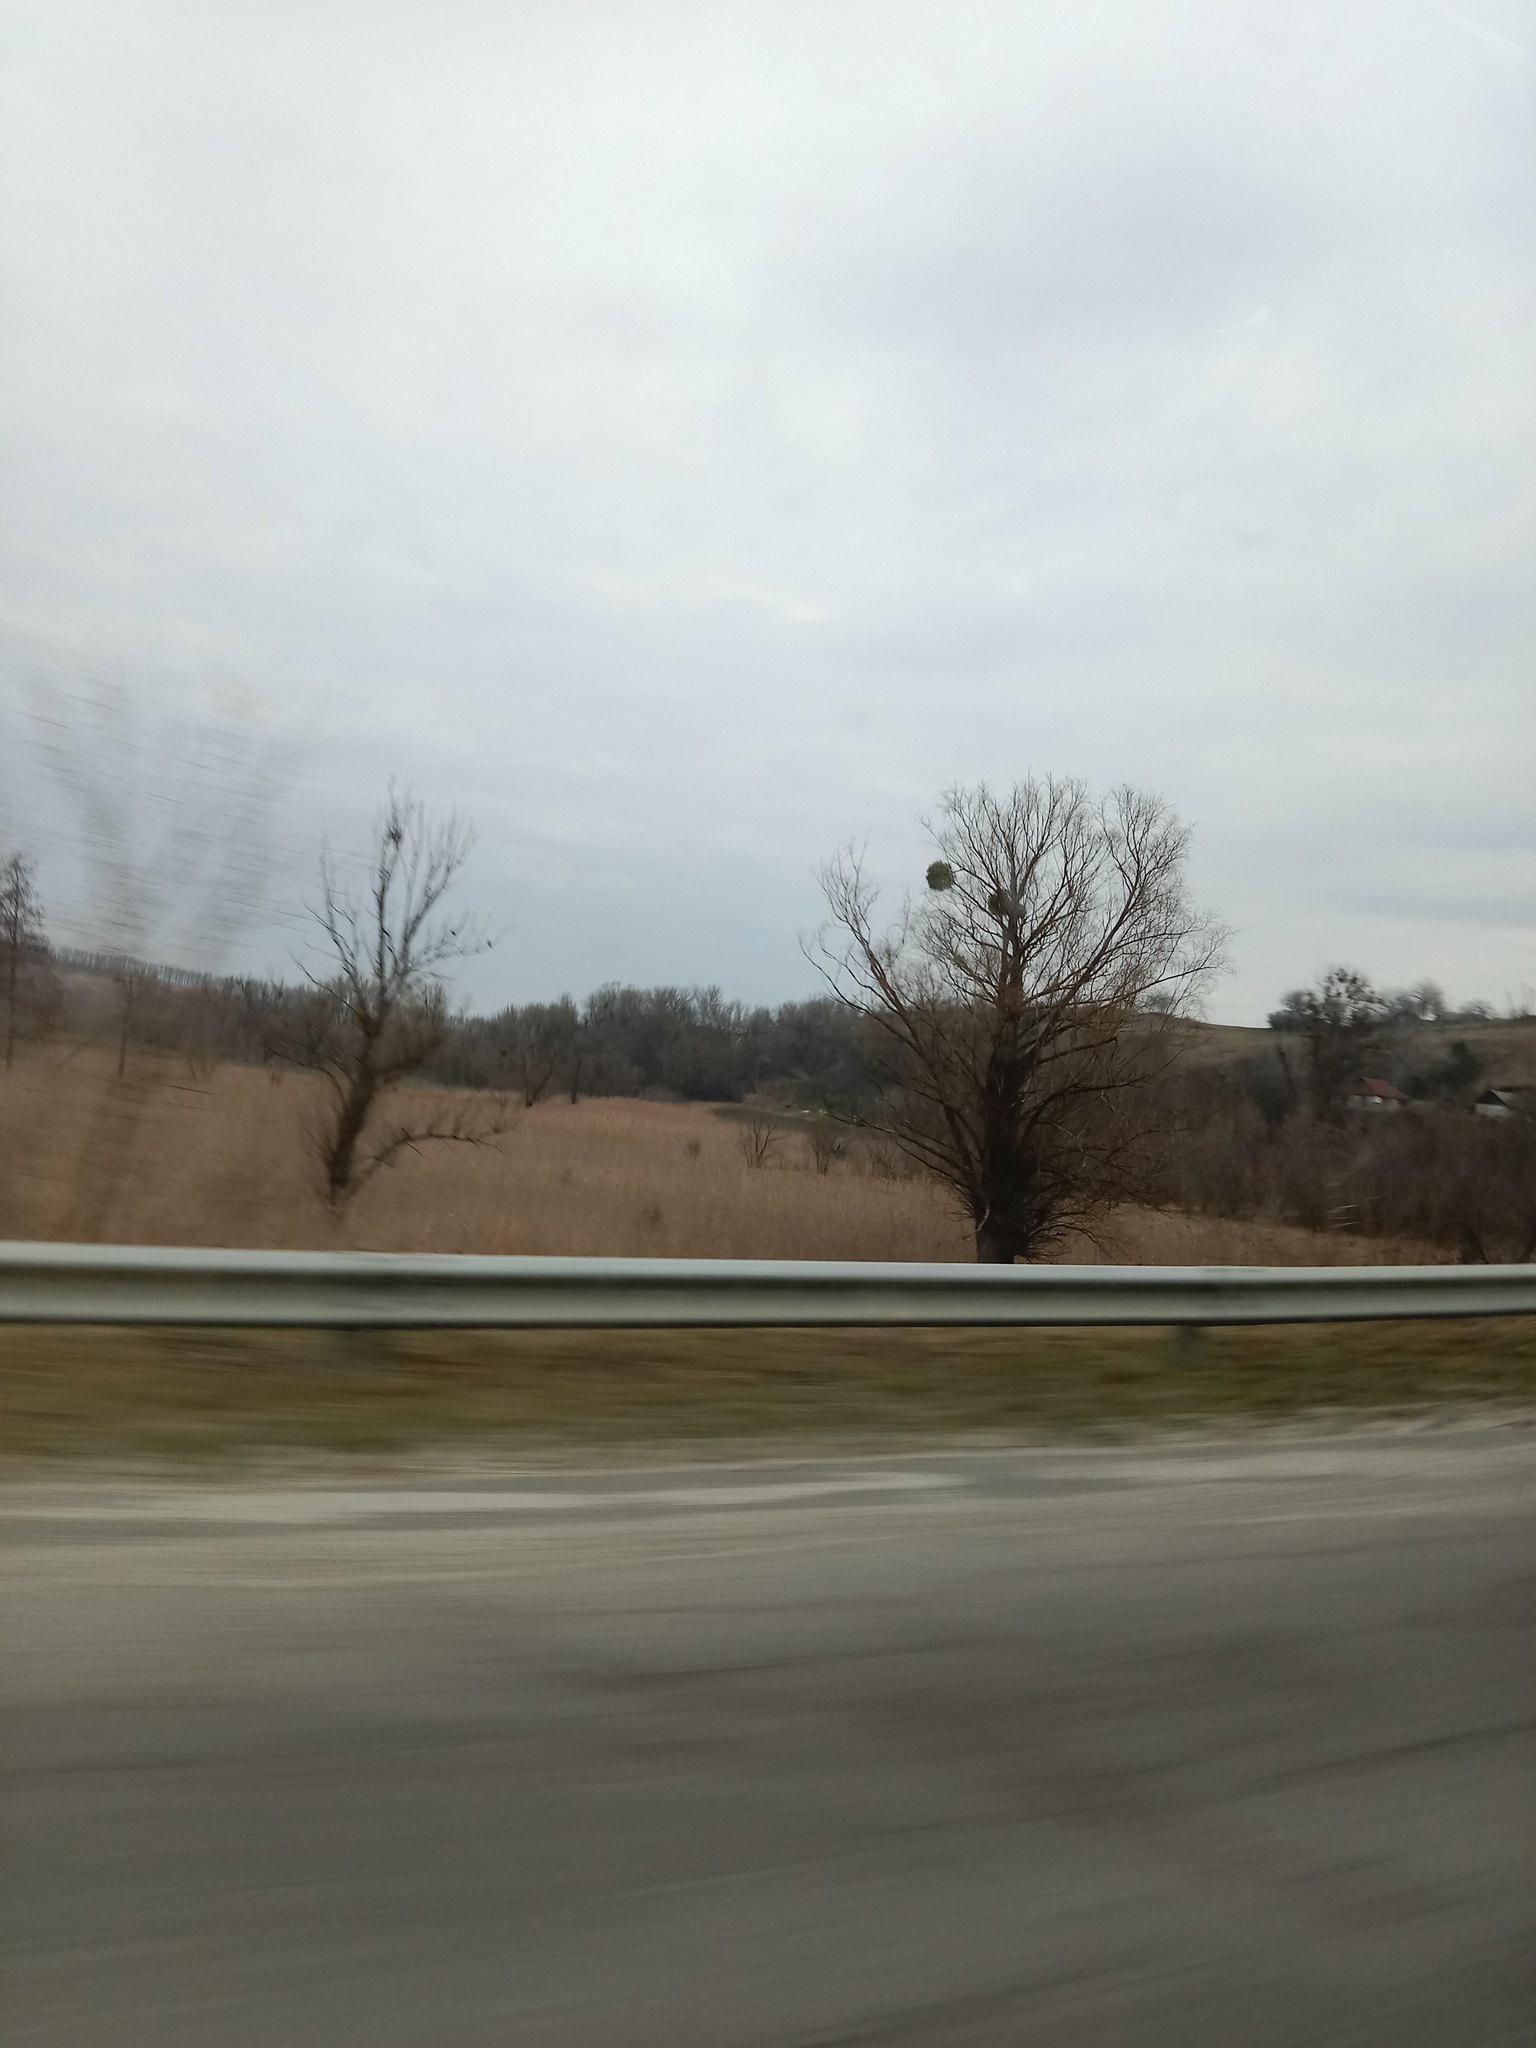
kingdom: Plantae
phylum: Tracheophyta
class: Magnoliopsida
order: Santalales
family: Viscaceae
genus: Viscum
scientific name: Viscum album
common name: Mistletoe
